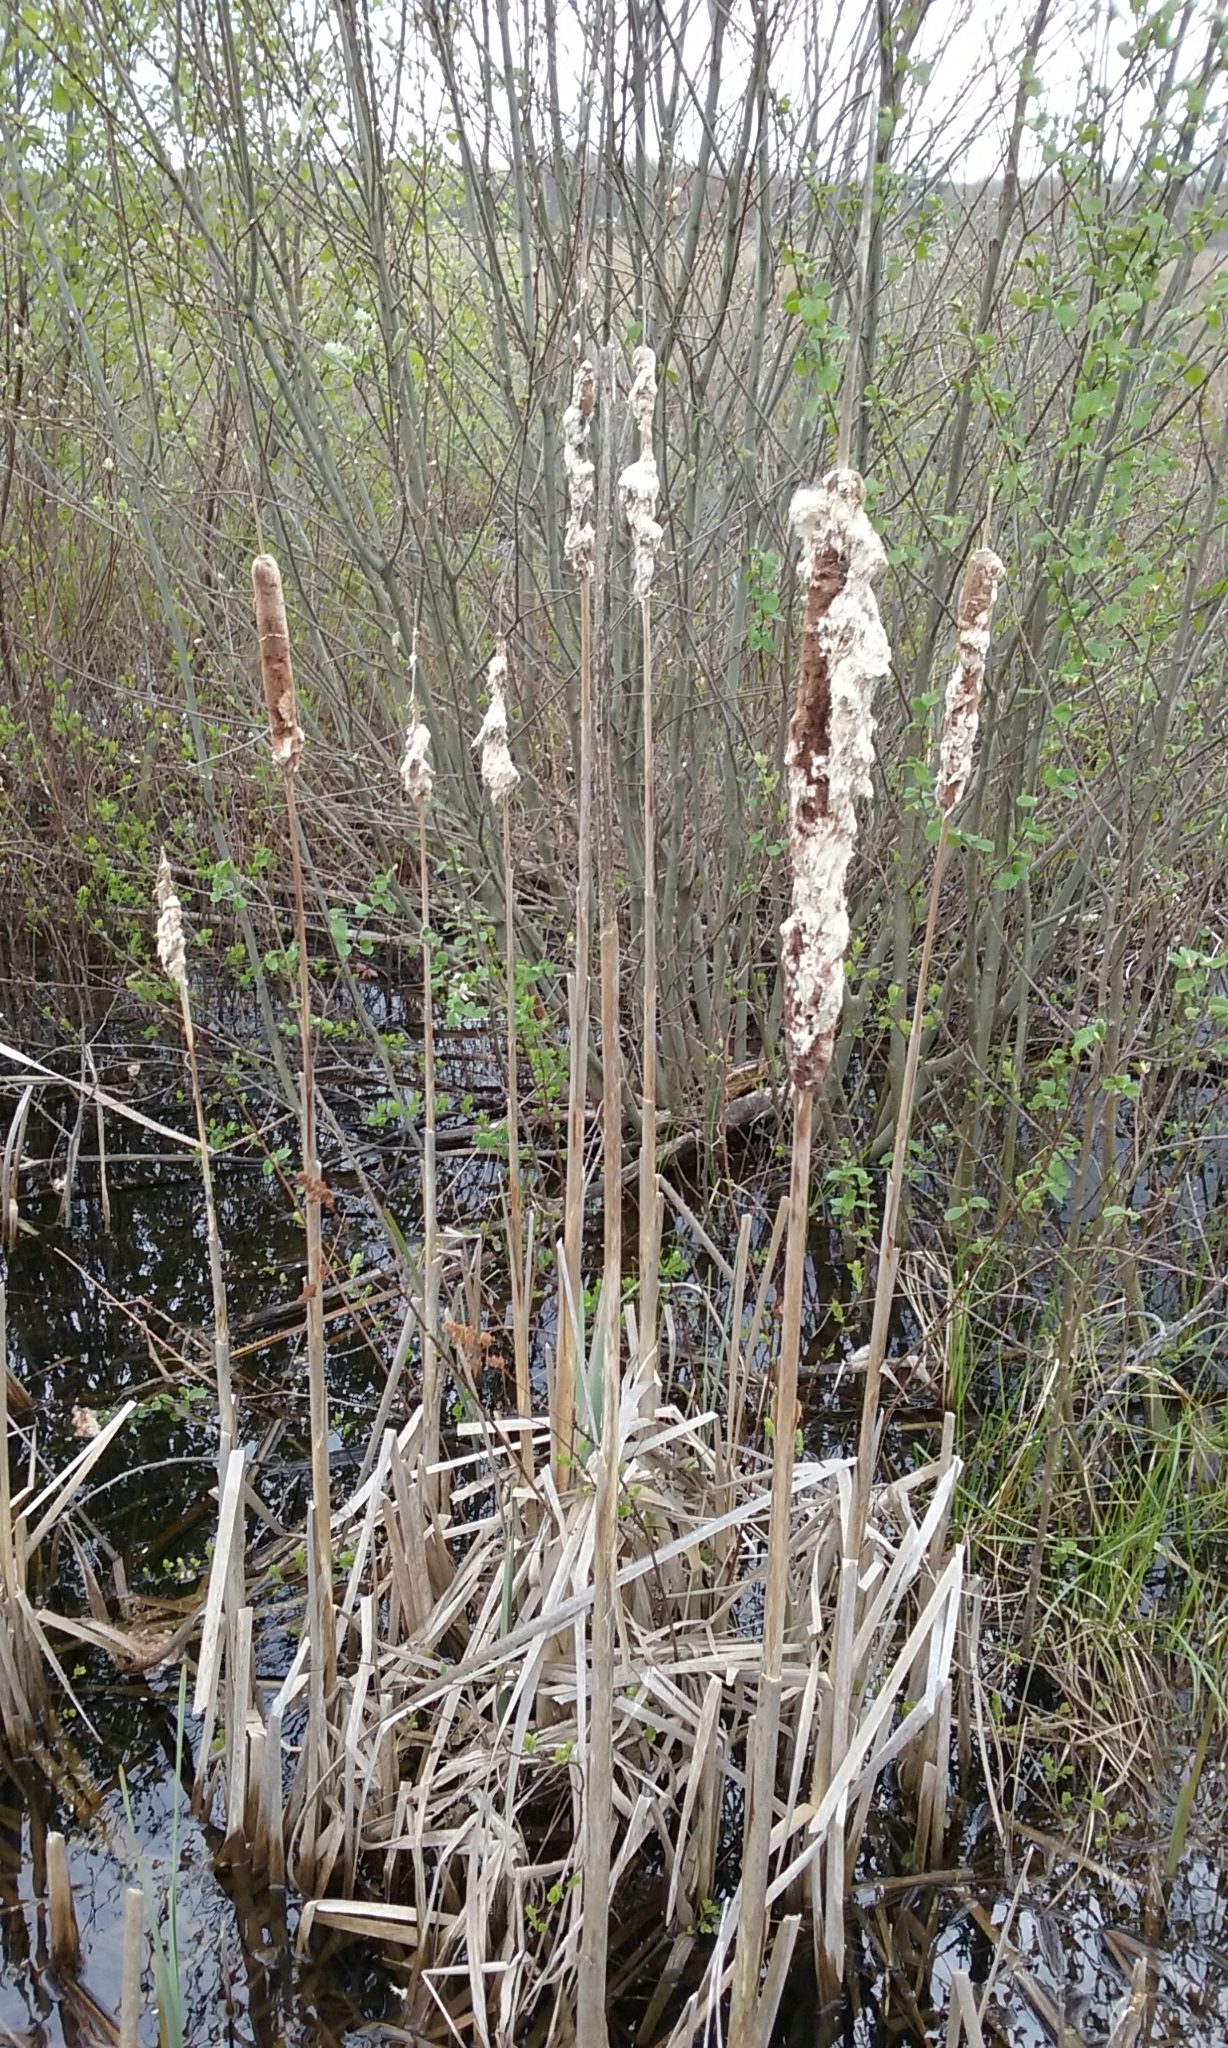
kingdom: Plantae
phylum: Tracheophyta
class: Liliopsida
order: Poales
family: Typhaceae
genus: Typha
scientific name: Typha latifolia
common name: Broadleaf cattail
